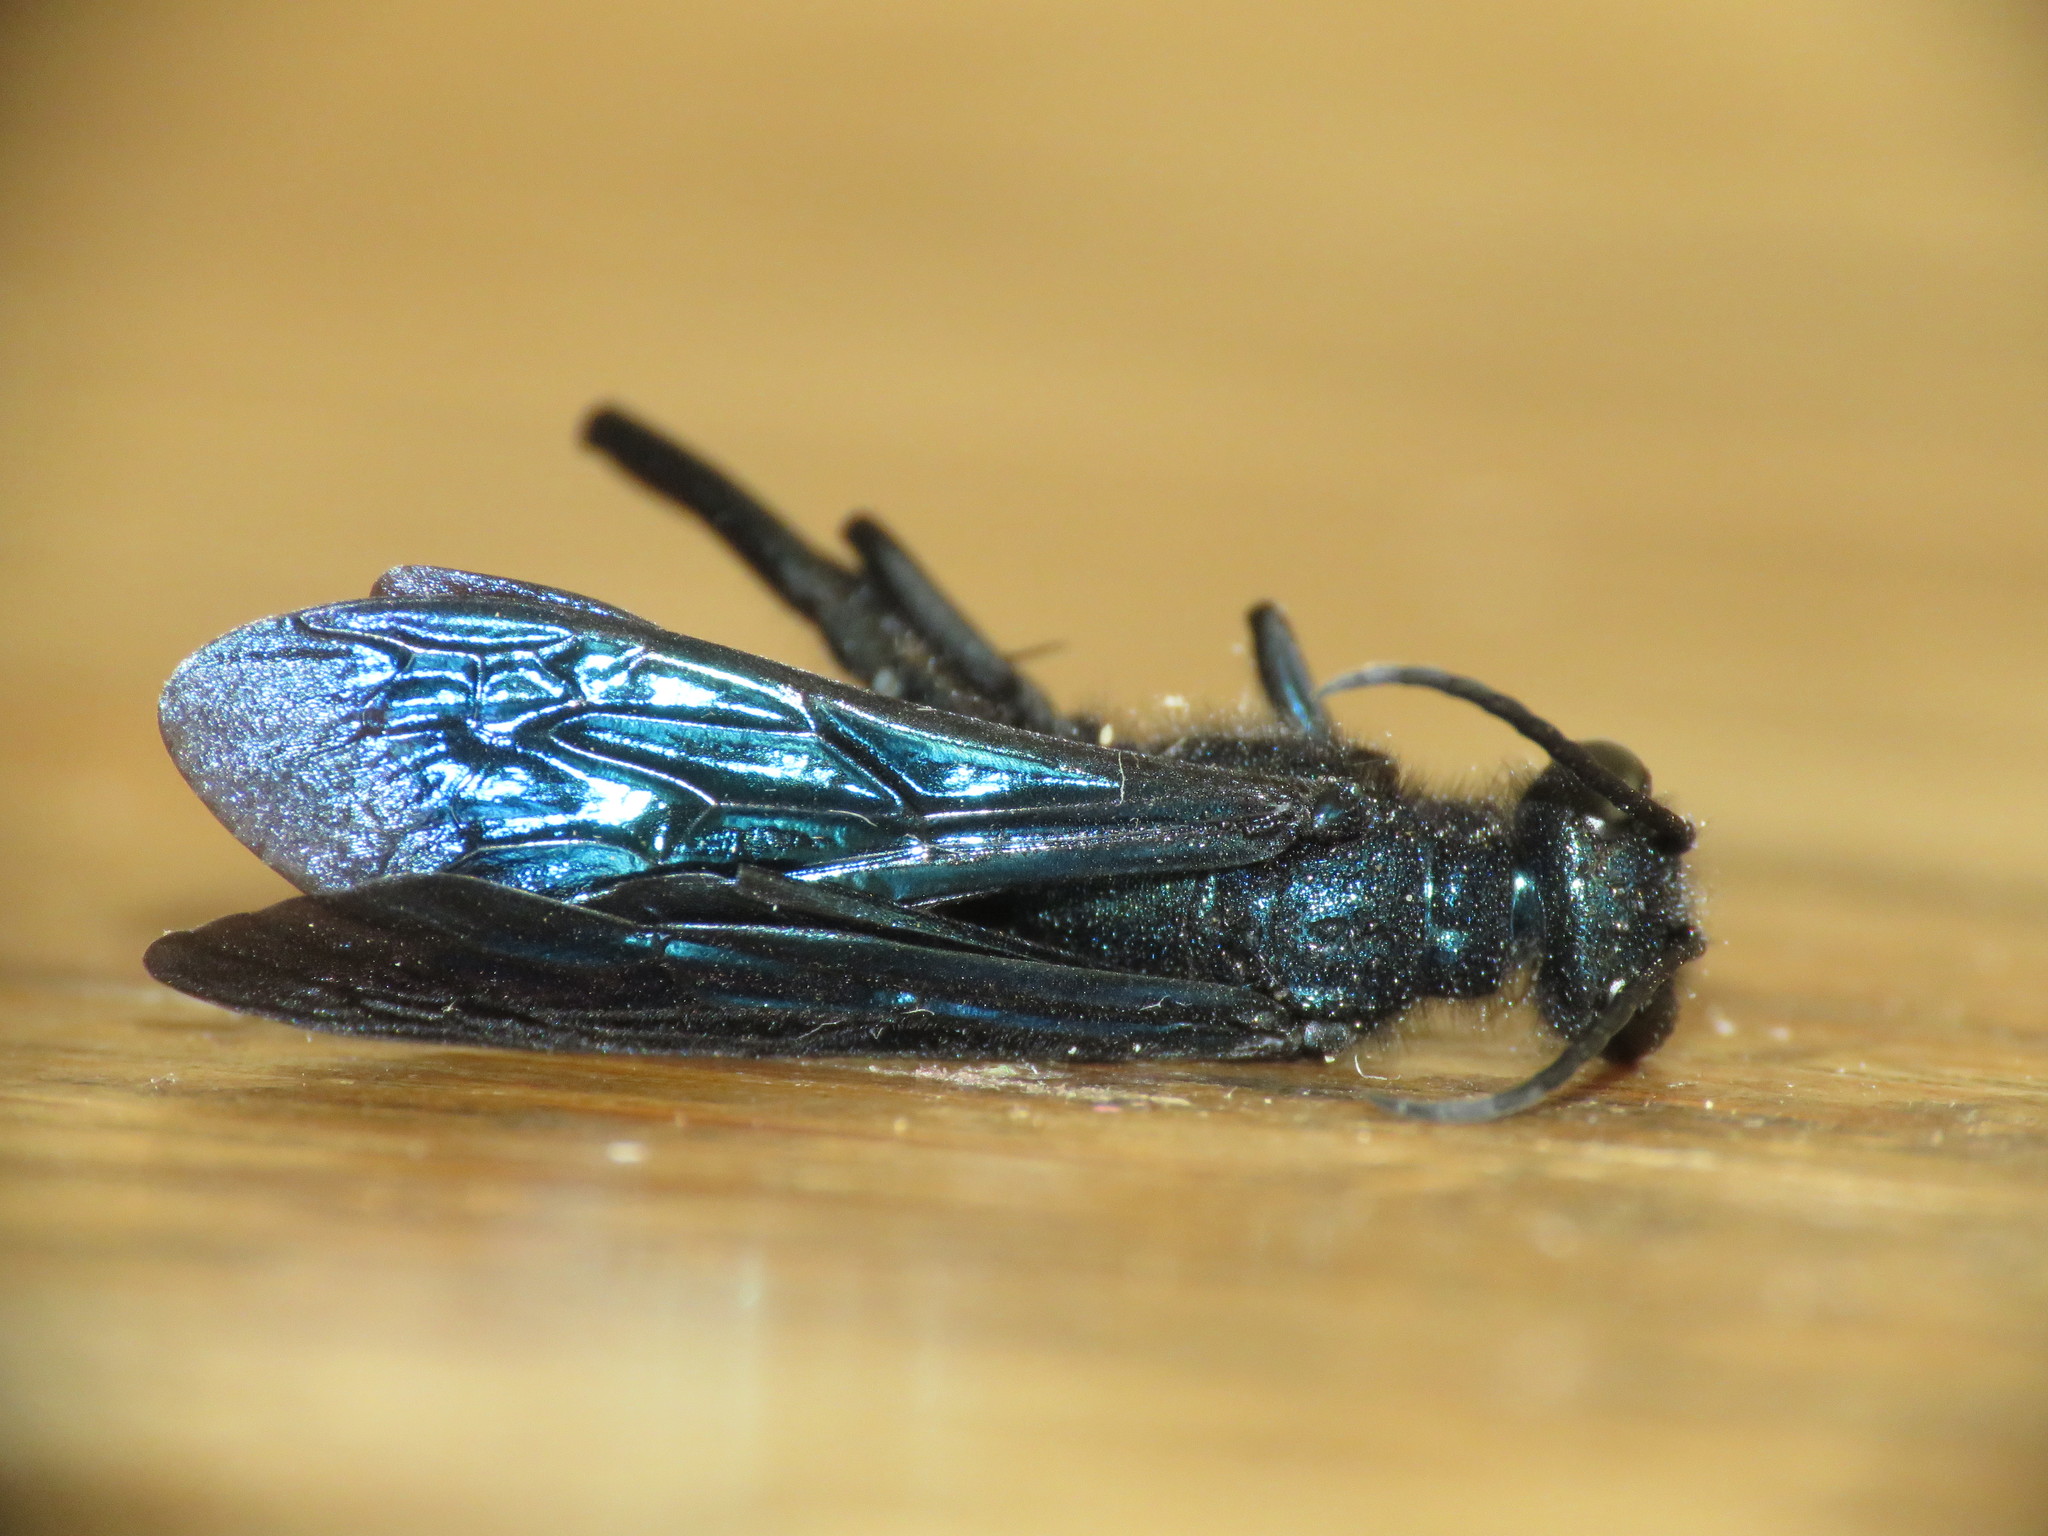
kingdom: Animalia
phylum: Arthropoda
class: Insecta
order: Hymenoptera
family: Sphecidae
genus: Chalybion
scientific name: Chalybion californicum
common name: Mud dauber
